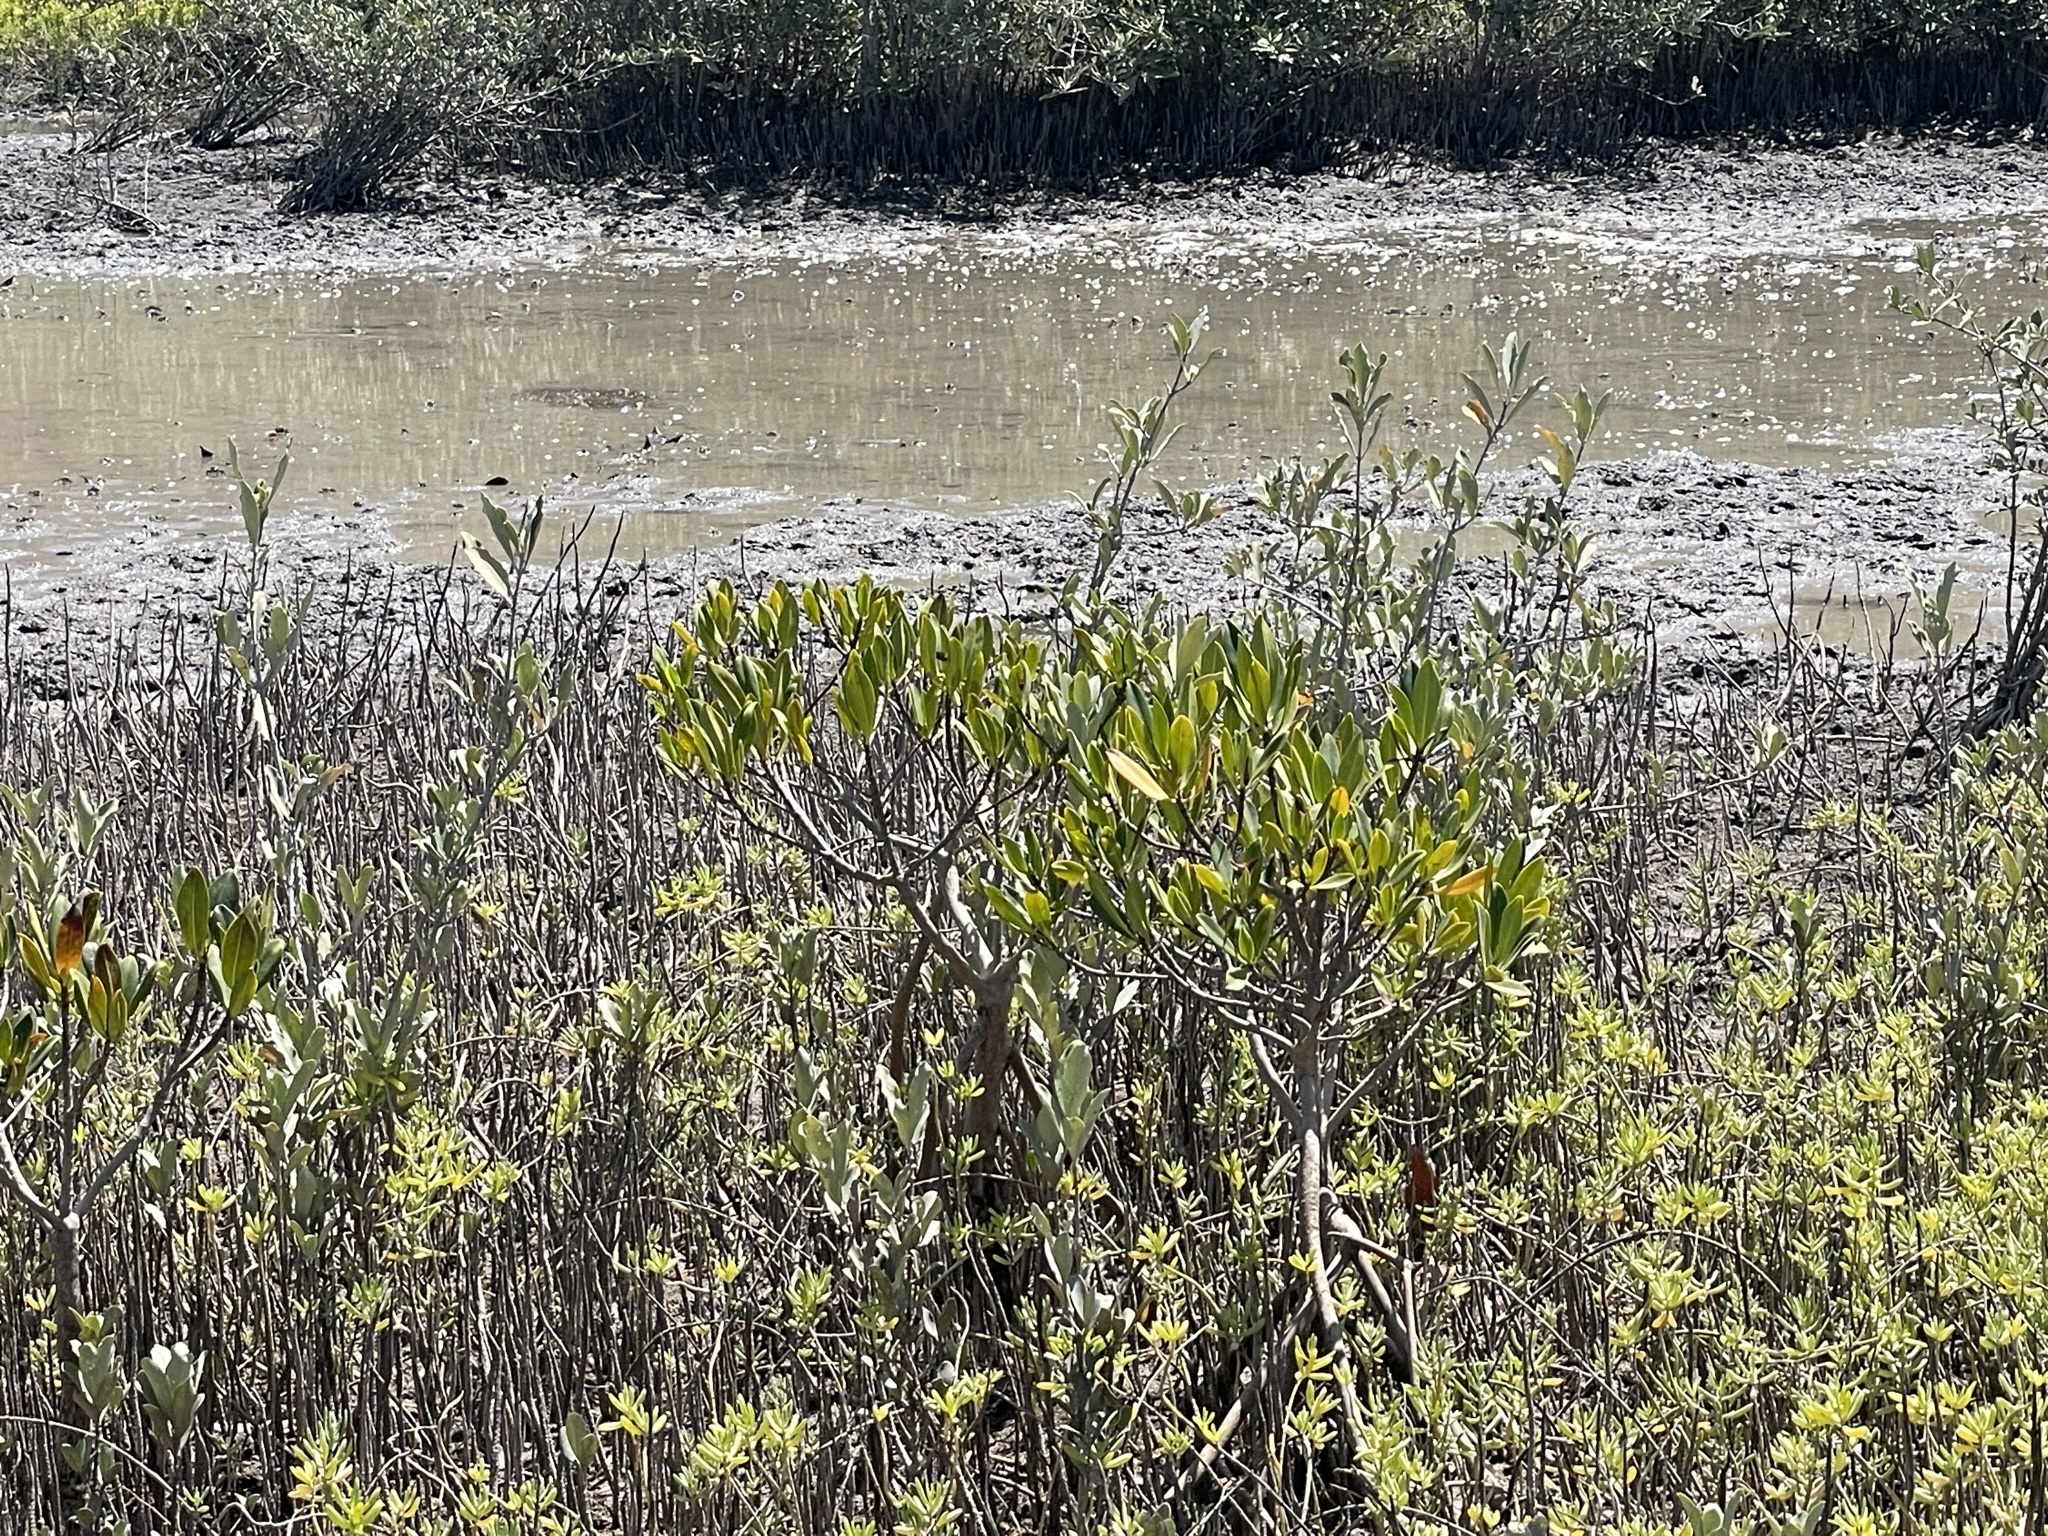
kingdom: Plantae
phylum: Tracheophyta
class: Magnoliopsida
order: Malpighiales
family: Rhizophoraceae
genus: Rhizophora
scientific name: Rhizophora mangle
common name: Red mangrove
